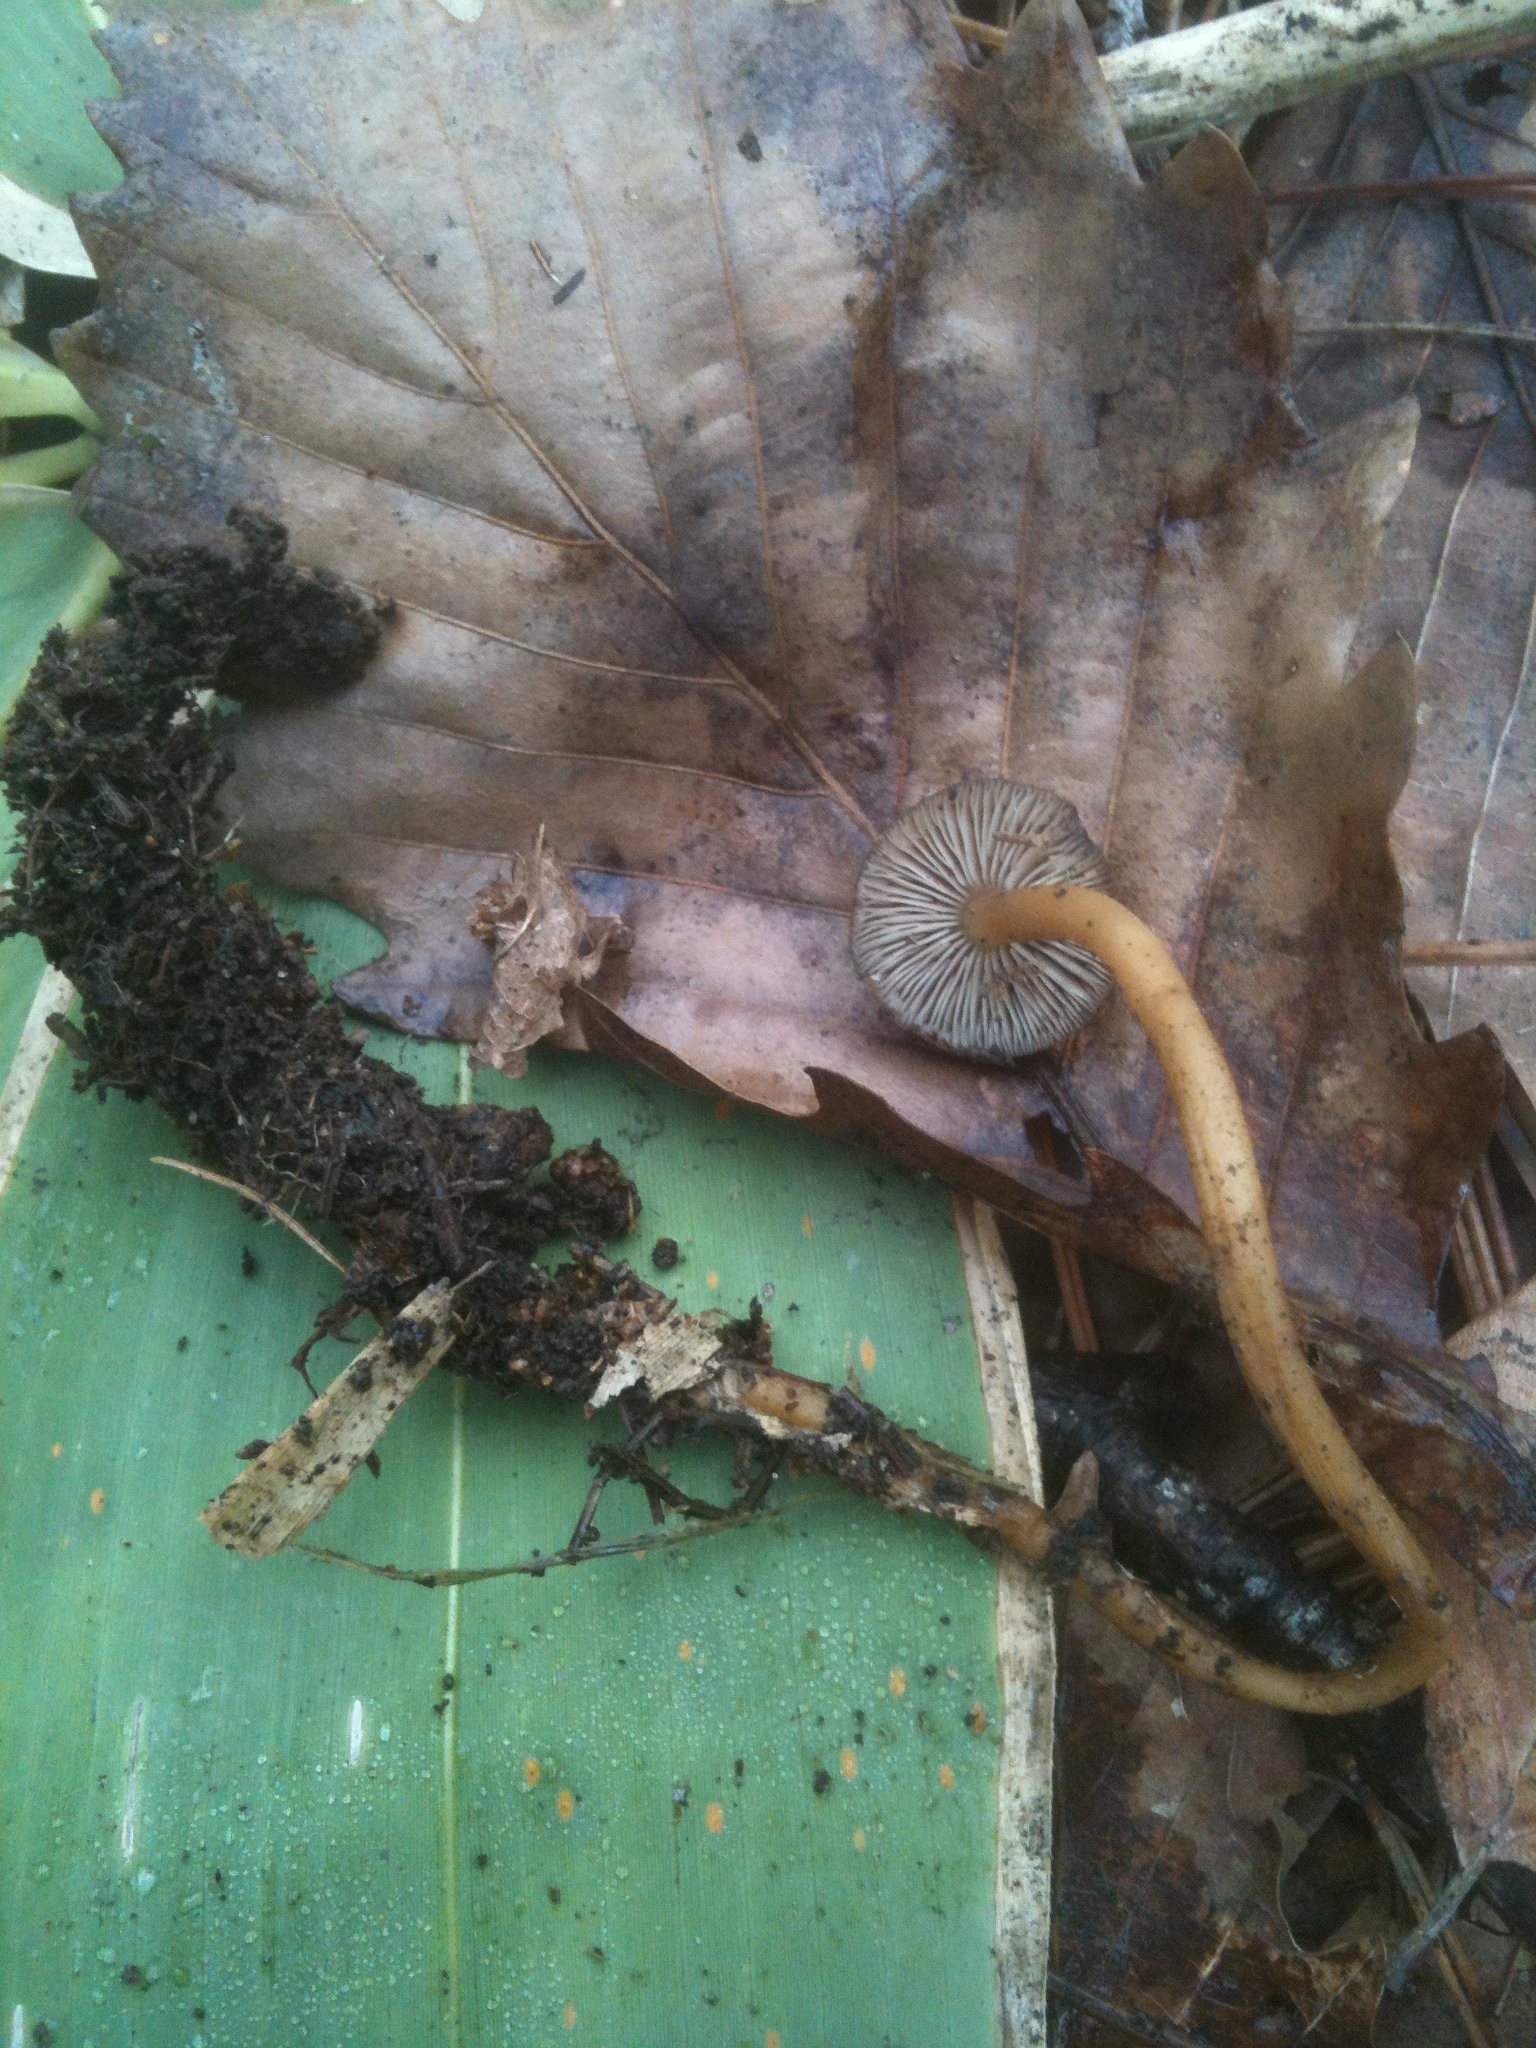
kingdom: Fungi
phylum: Basidiomycota
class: Agaricomycetes
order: Agaricales
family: Physalacriaceae
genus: Strobilurus
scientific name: Strobilurus stephanocystis
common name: Russian conecap
